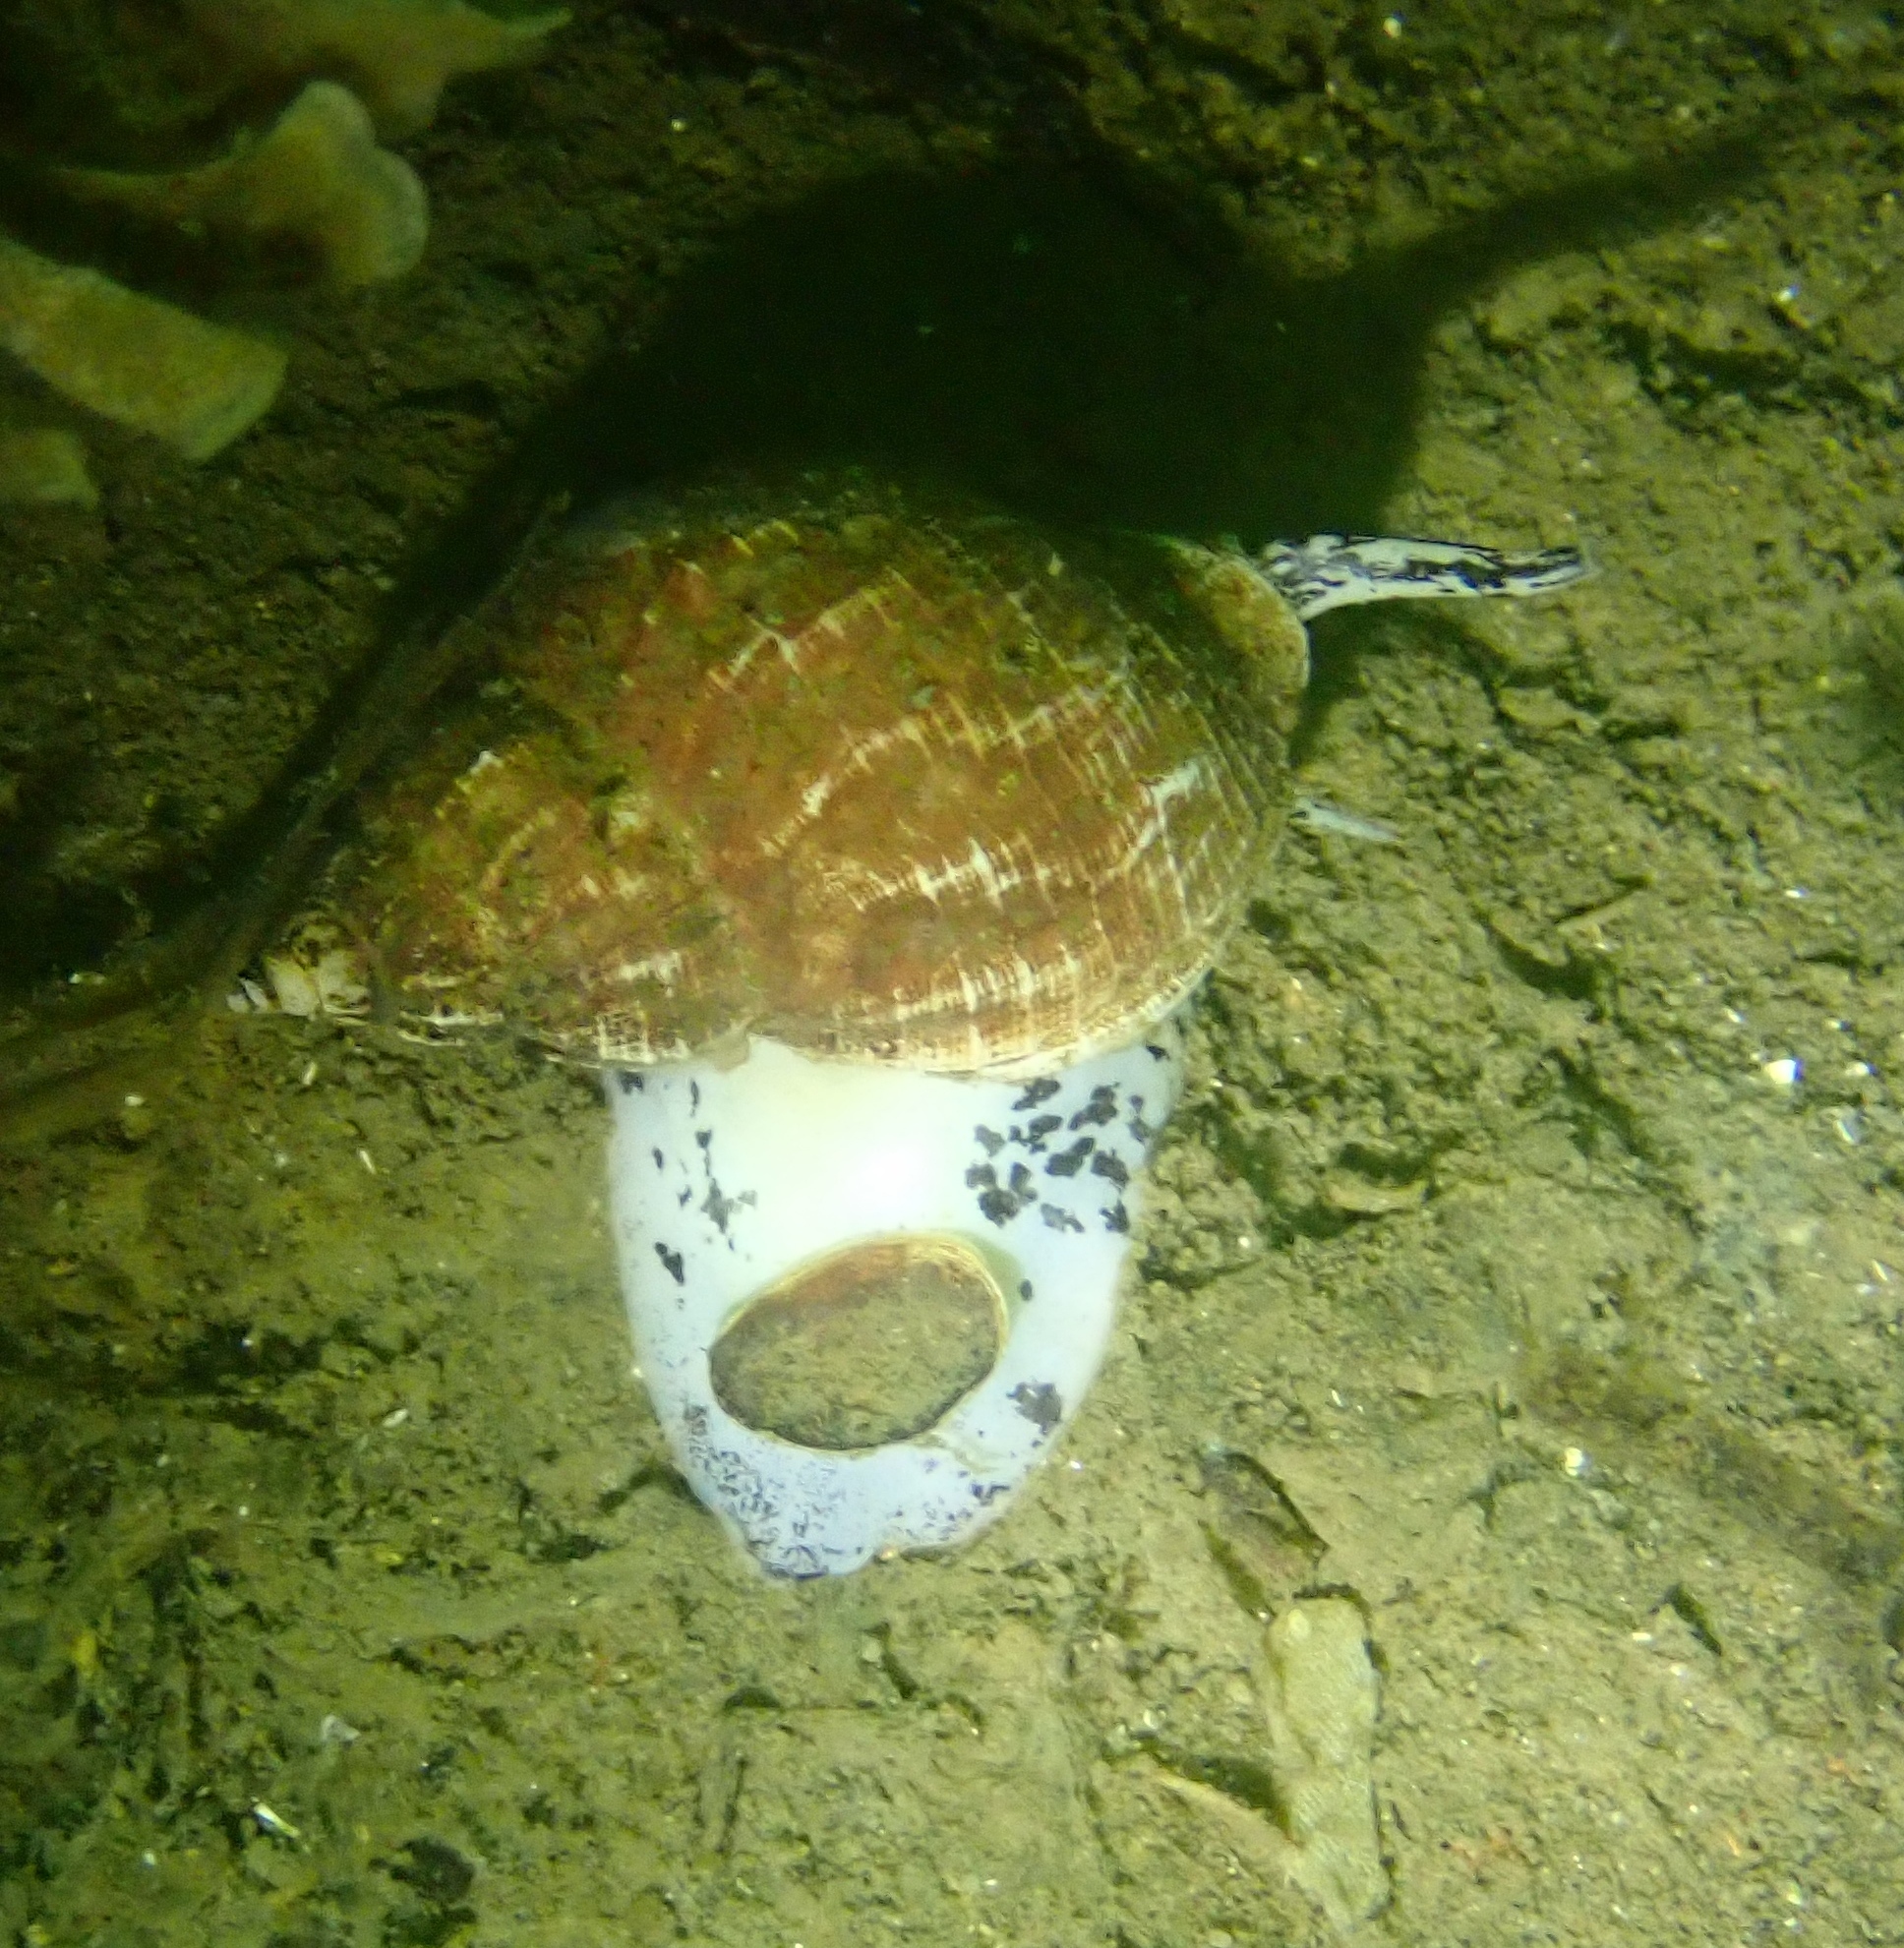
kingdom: Animalia
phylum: Mollusca
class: Gastropoda
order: Neogastropoda
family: Buccinidae
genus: Buccinum
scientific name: Buccinum undatum
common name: Common whelk
